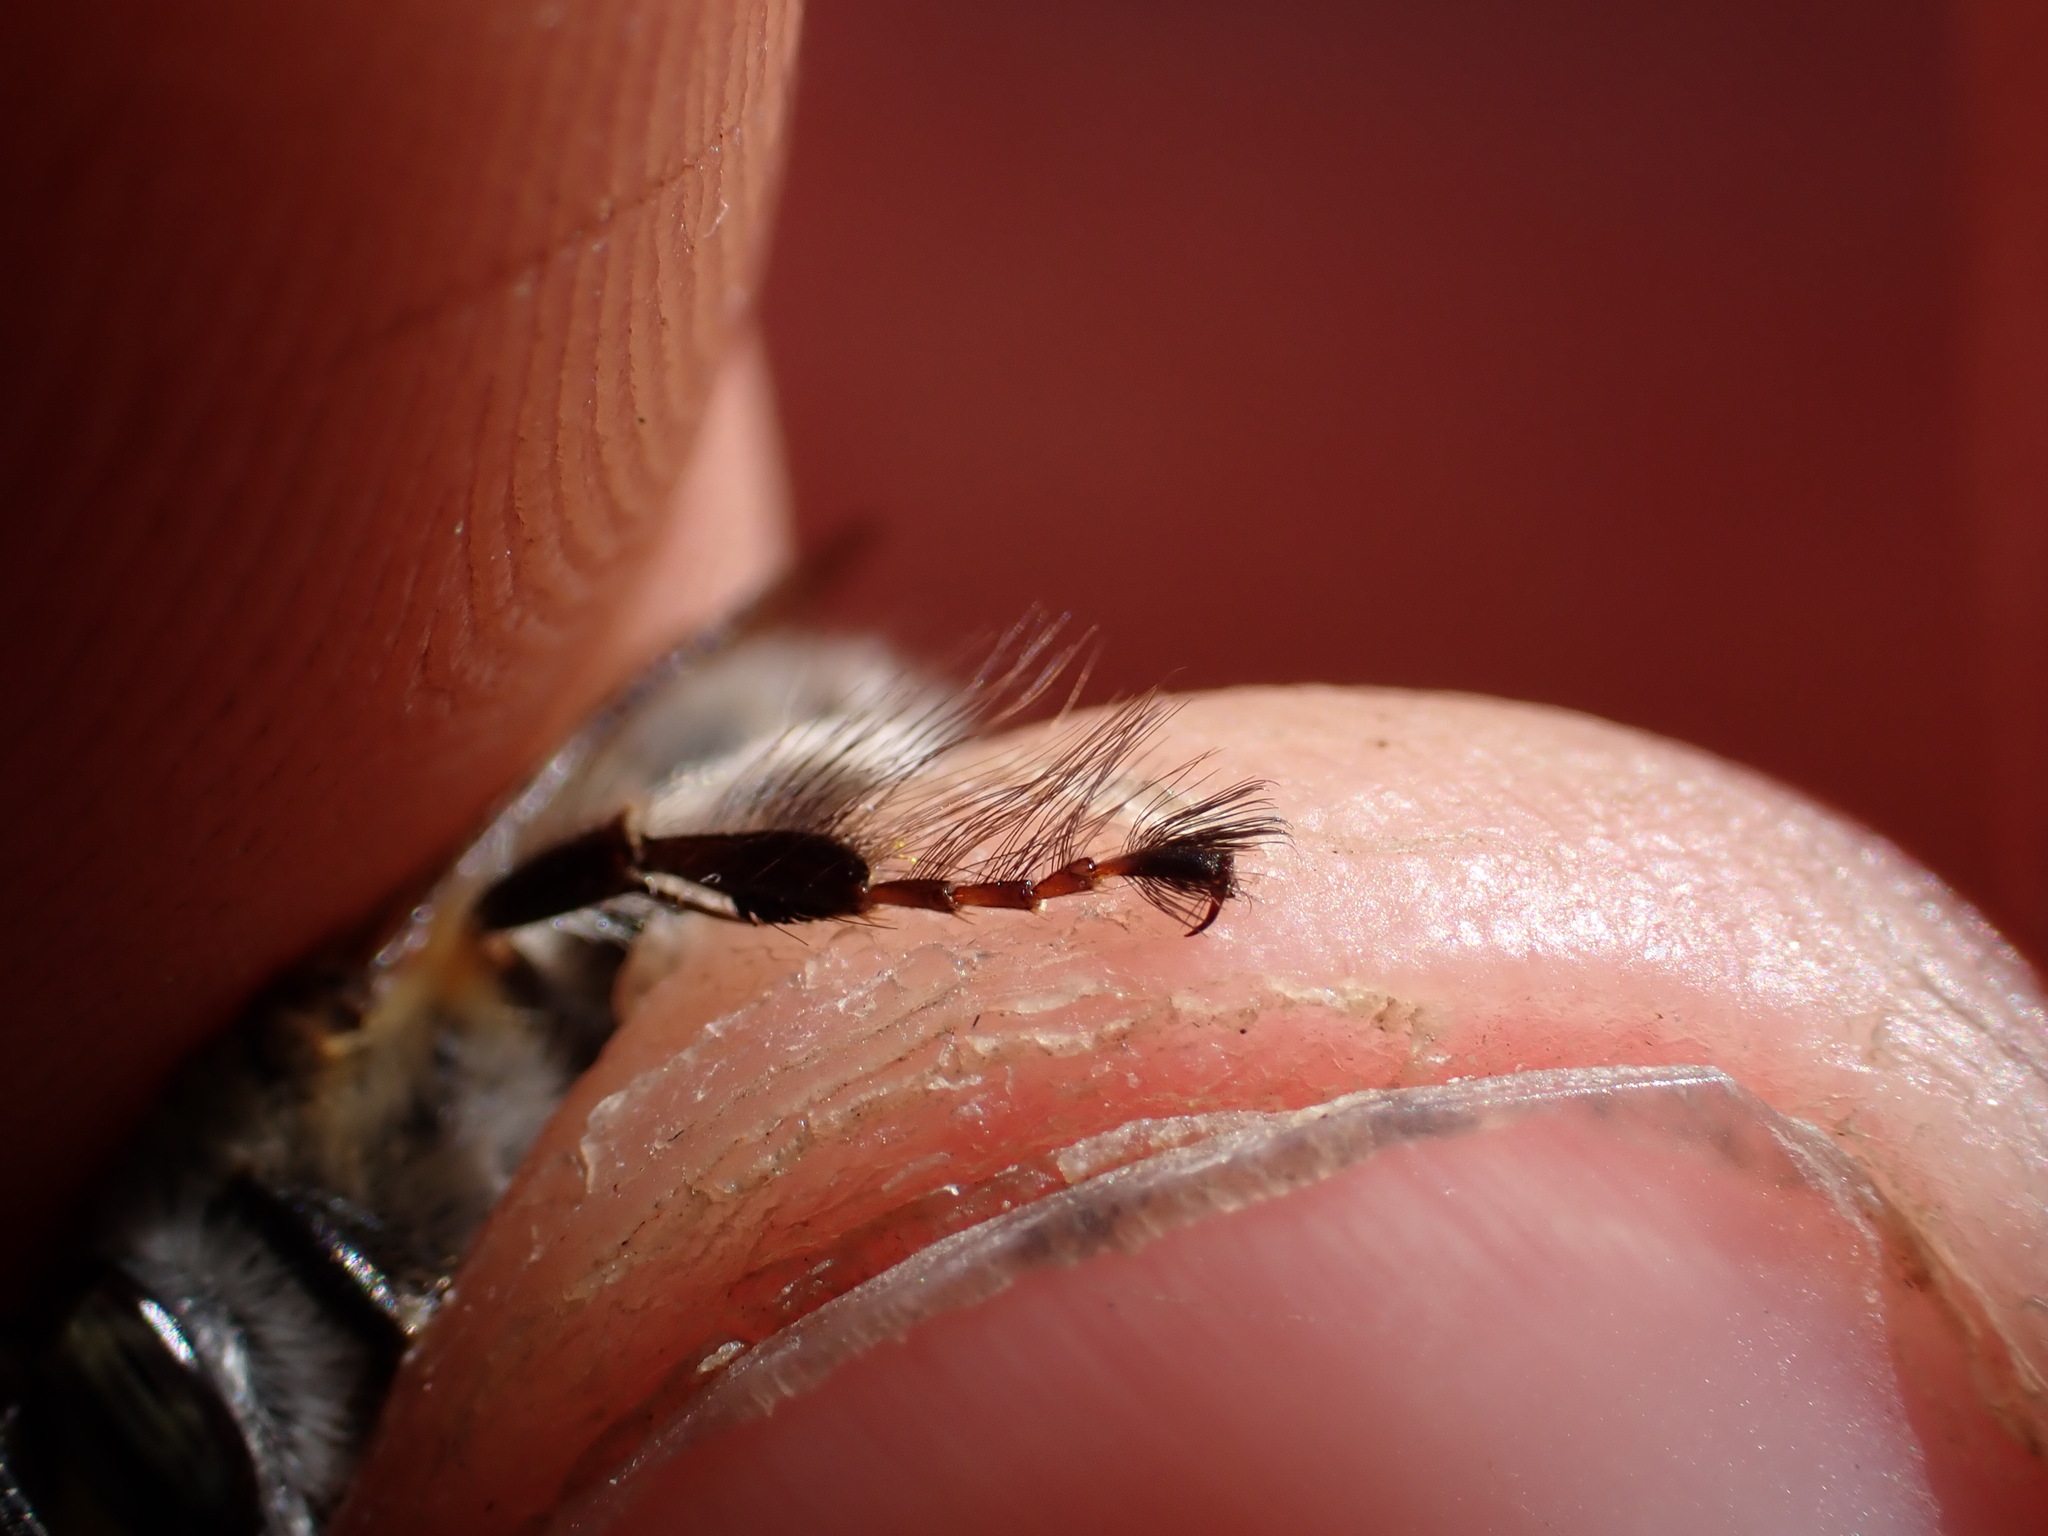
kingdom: Animalia
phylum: Arthropoda
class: Insecta
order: Hymenoptera
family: Apidae
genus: Anthophora
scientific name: Anthophora plumipes
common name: Hairy-footed flower bee
